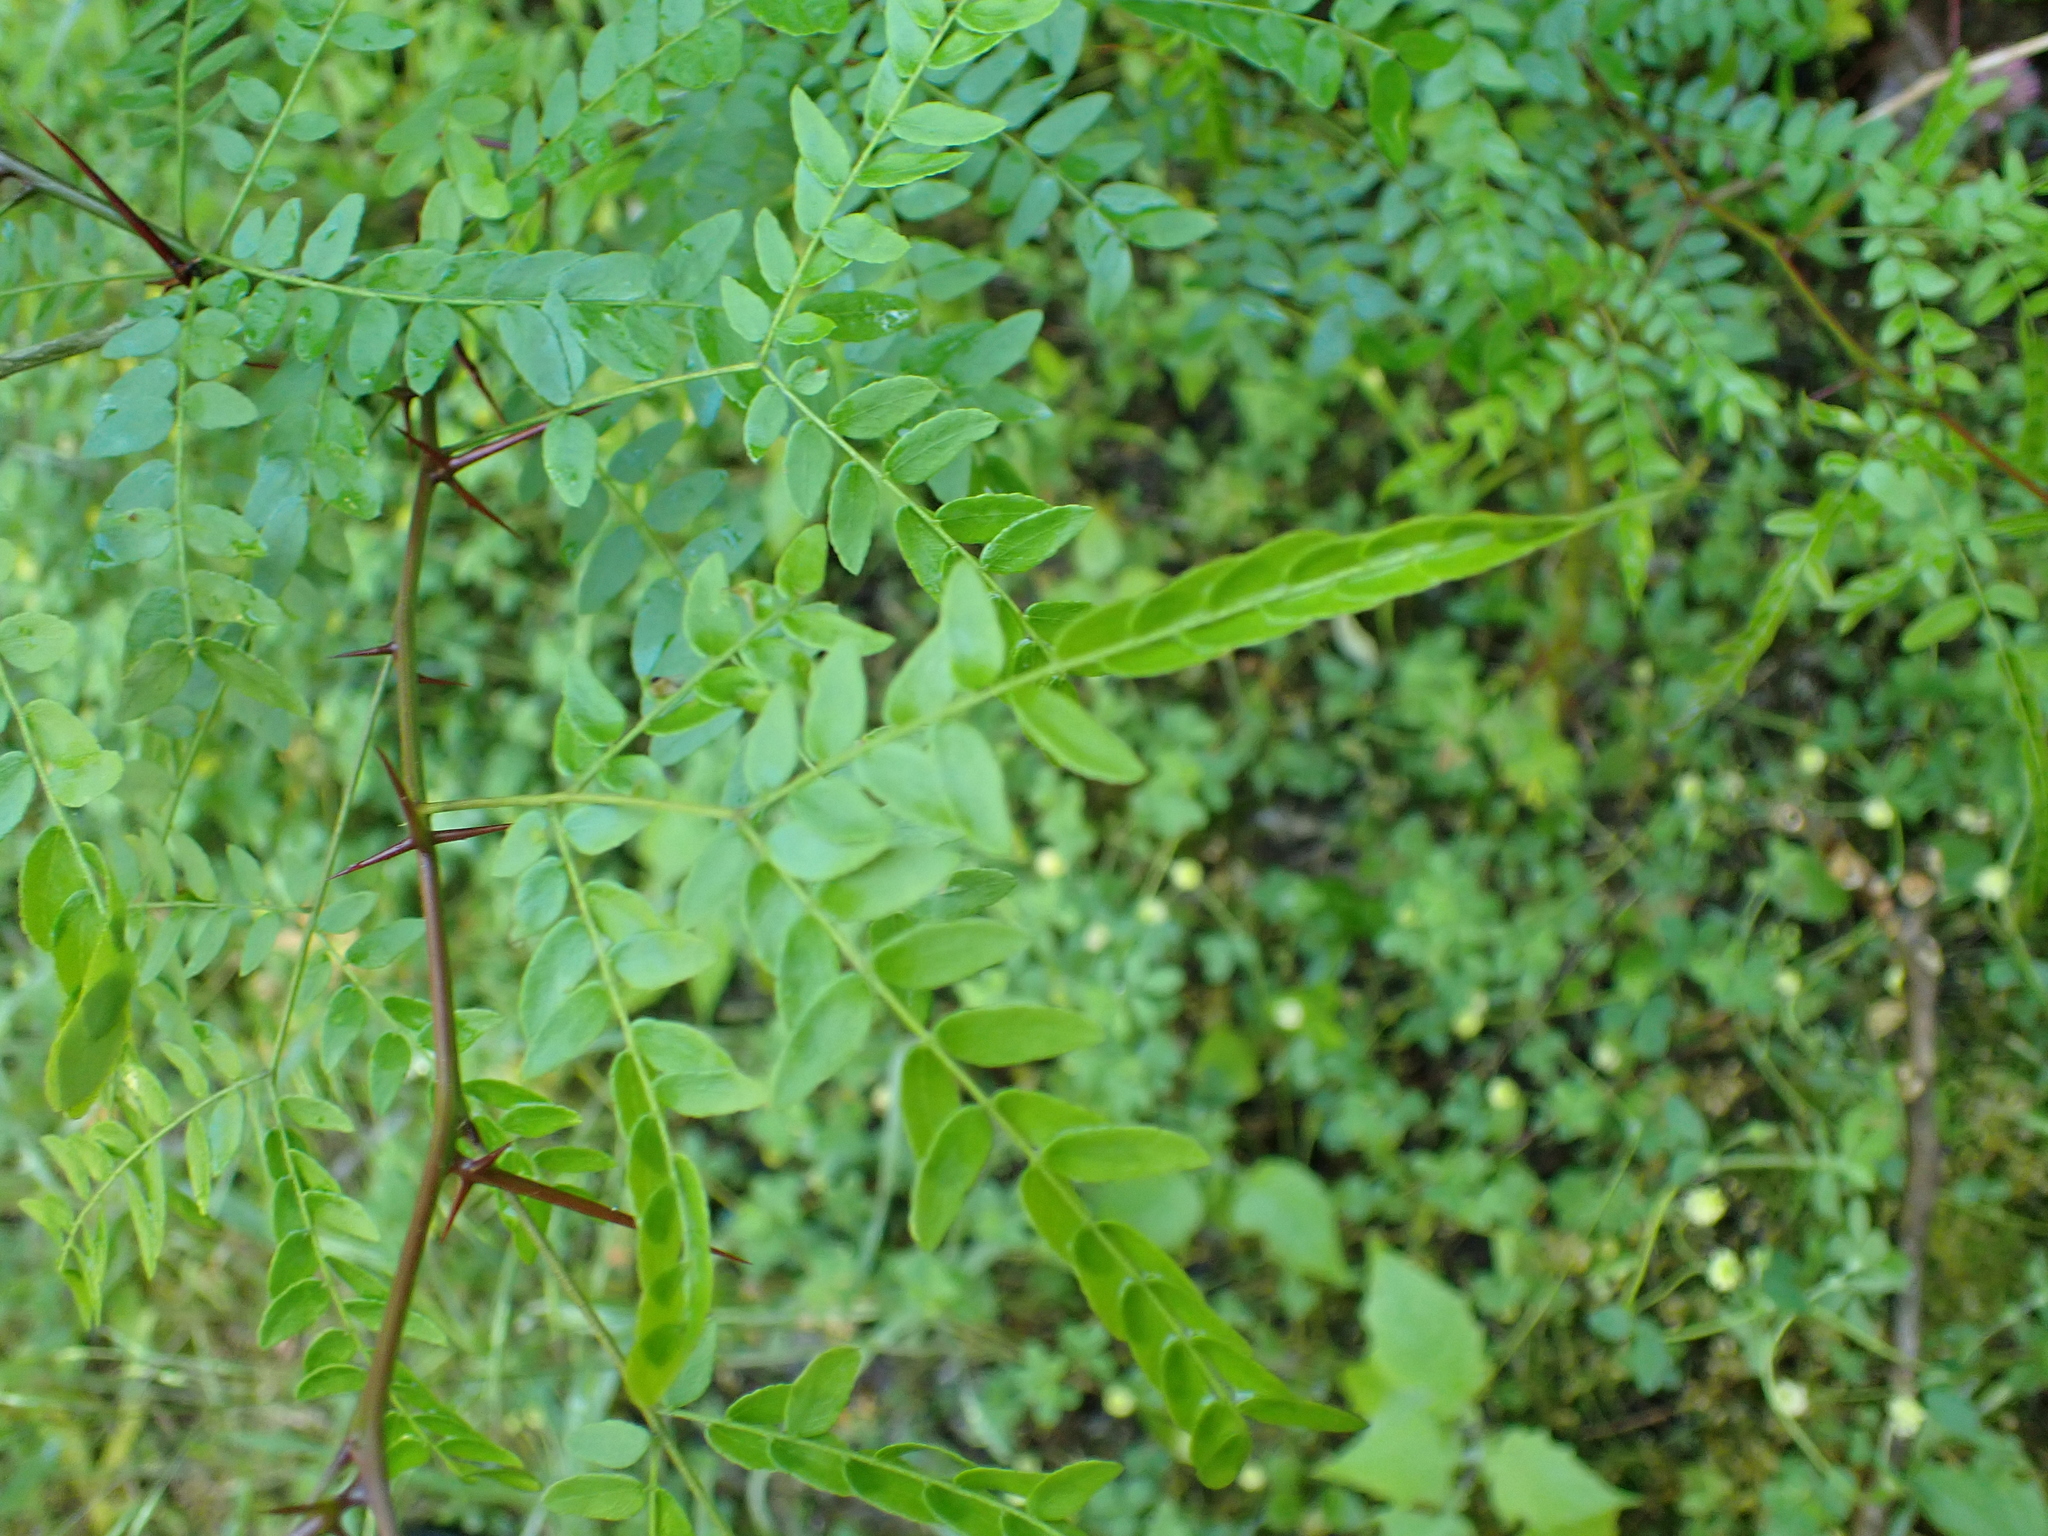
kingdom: Plantae
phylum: Tracheophyta
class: Magnoliopsida
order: Fabales
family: Fabaceae
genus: Gleditsia
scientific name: Gleditsia triacanthos
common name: Common honeylocust
